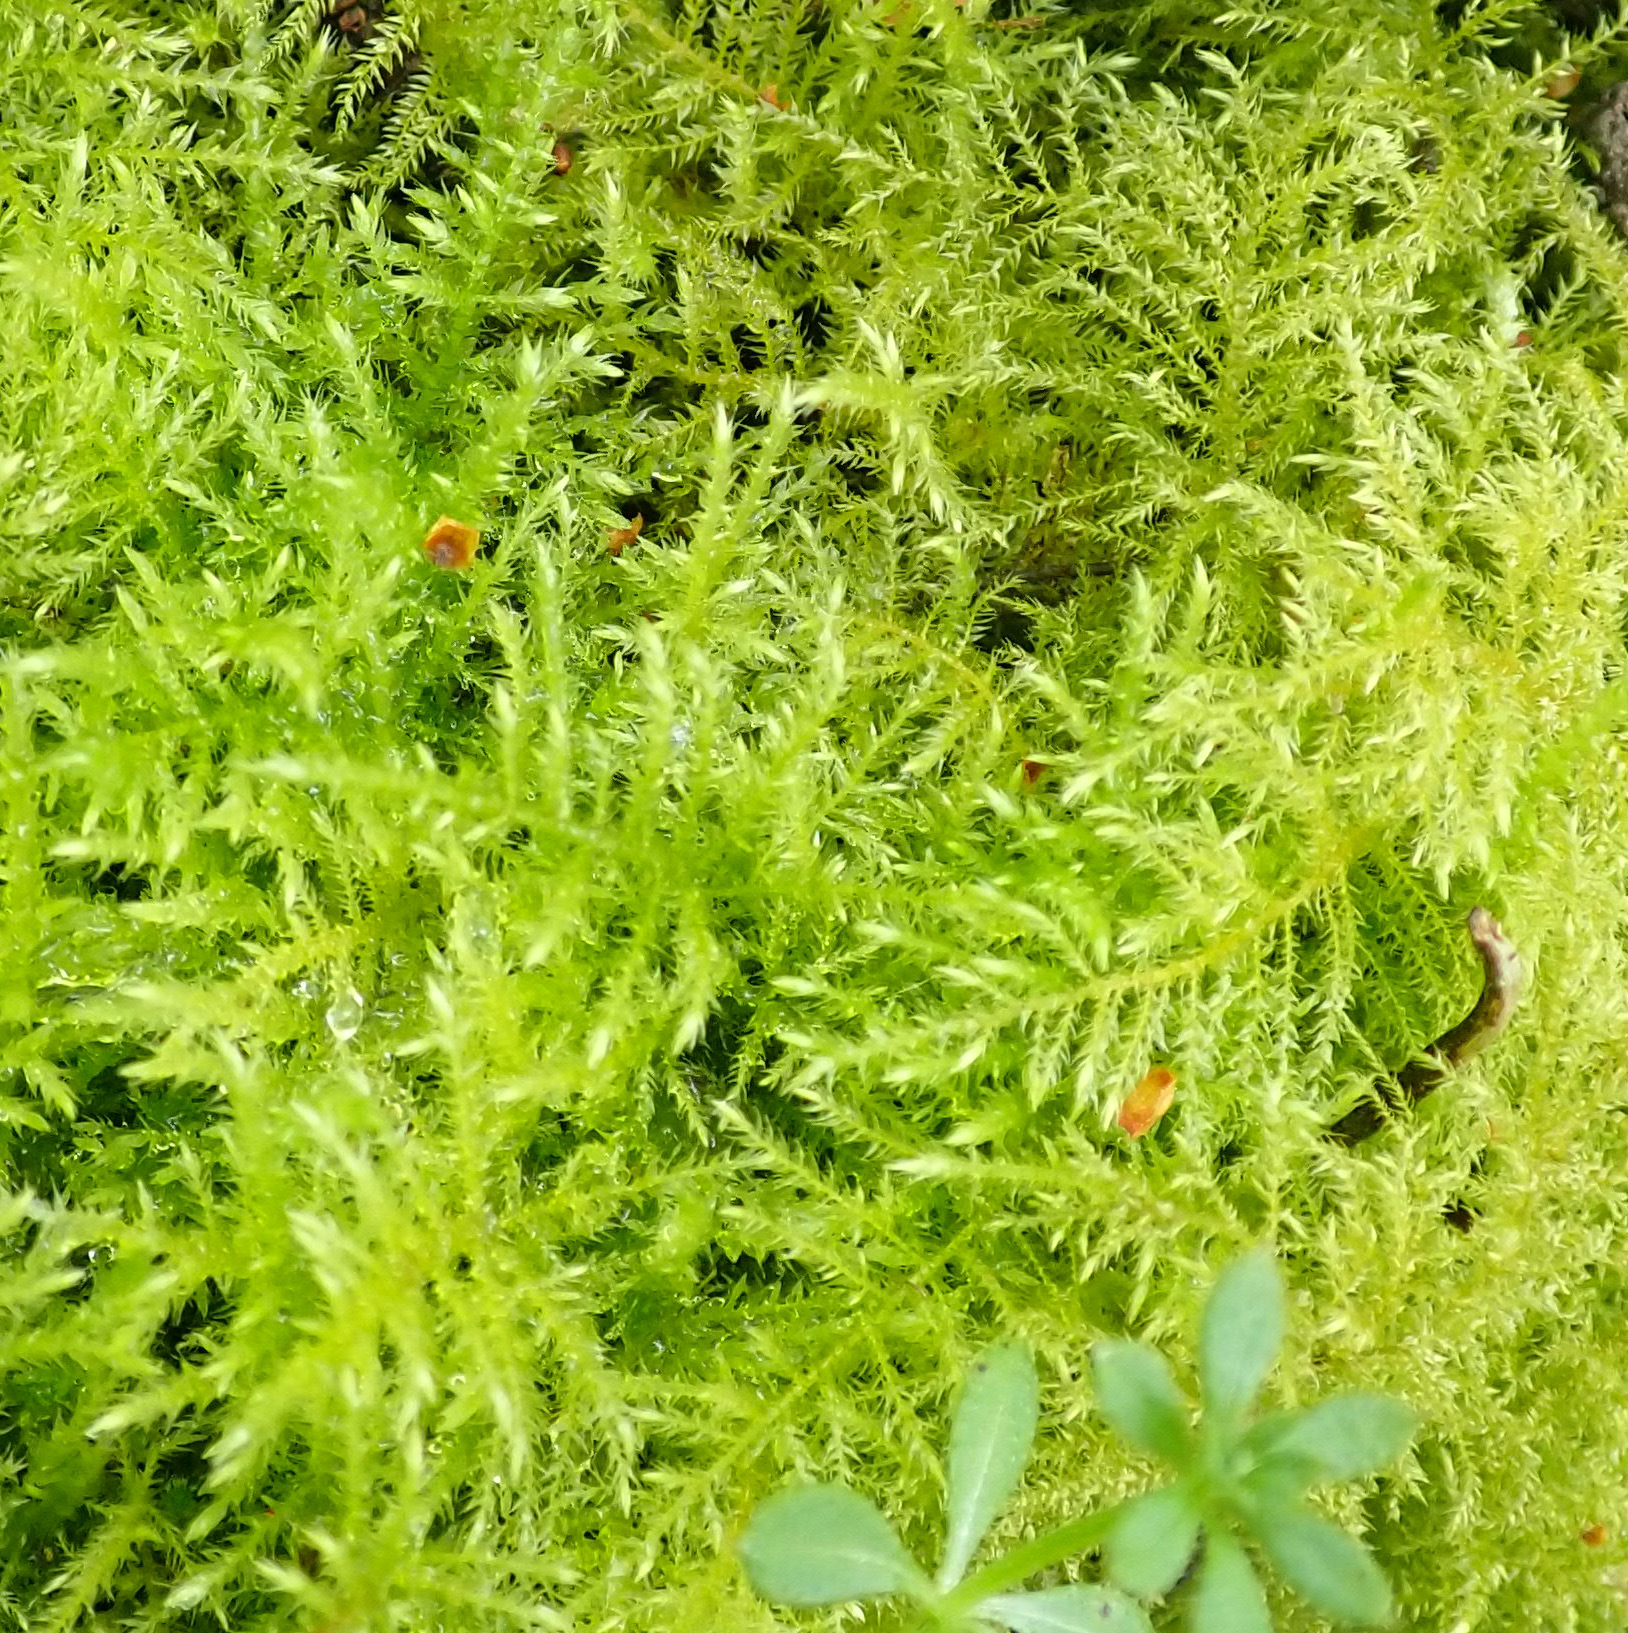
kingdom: Plantae
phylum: Bryophyta
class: Bryopsida
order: Hypnales
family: Brachytheciaceae
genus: Kindbergia
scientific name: Kindbergia praelonga
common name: Slender beaked moss
